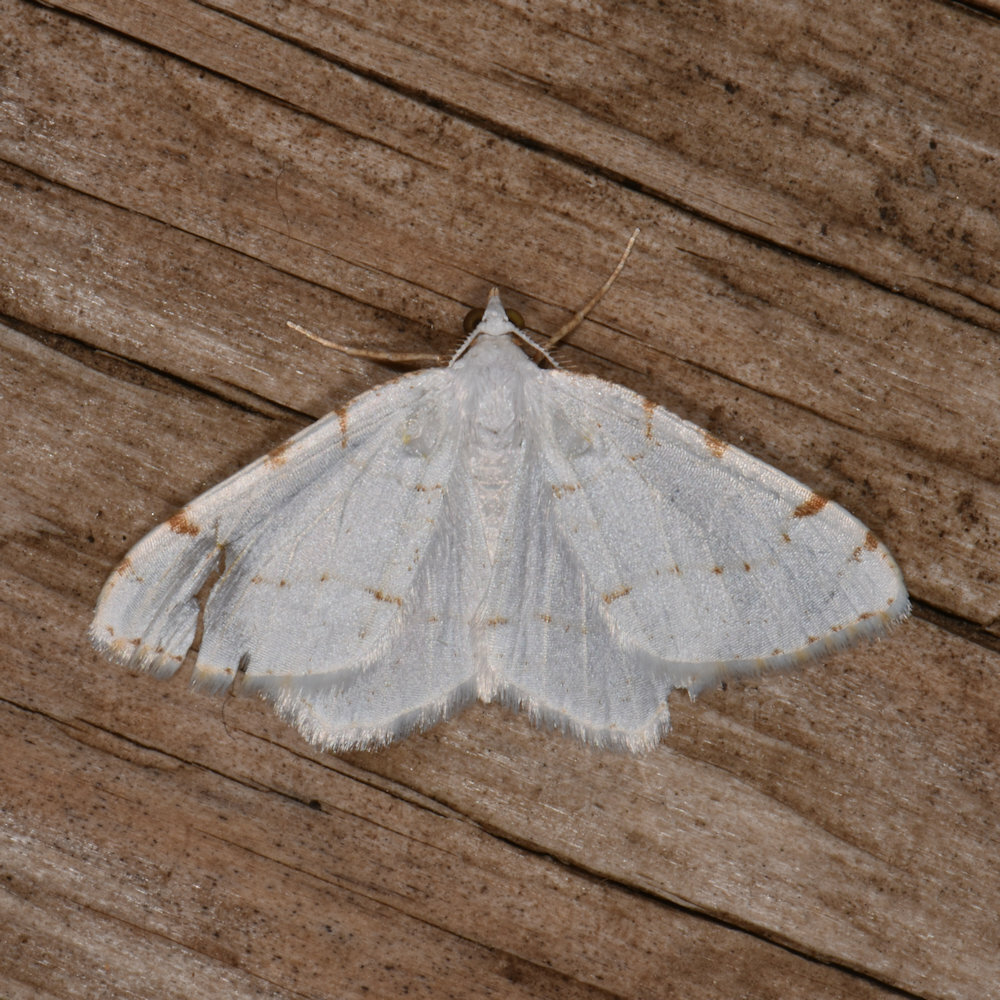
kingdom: Animalia
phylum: Arthropoda
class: Insecta
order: Lepidoptera
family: Geometridae
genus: Macaria
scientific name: Macaria pustularia
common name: Lesser maple spanworm moth
